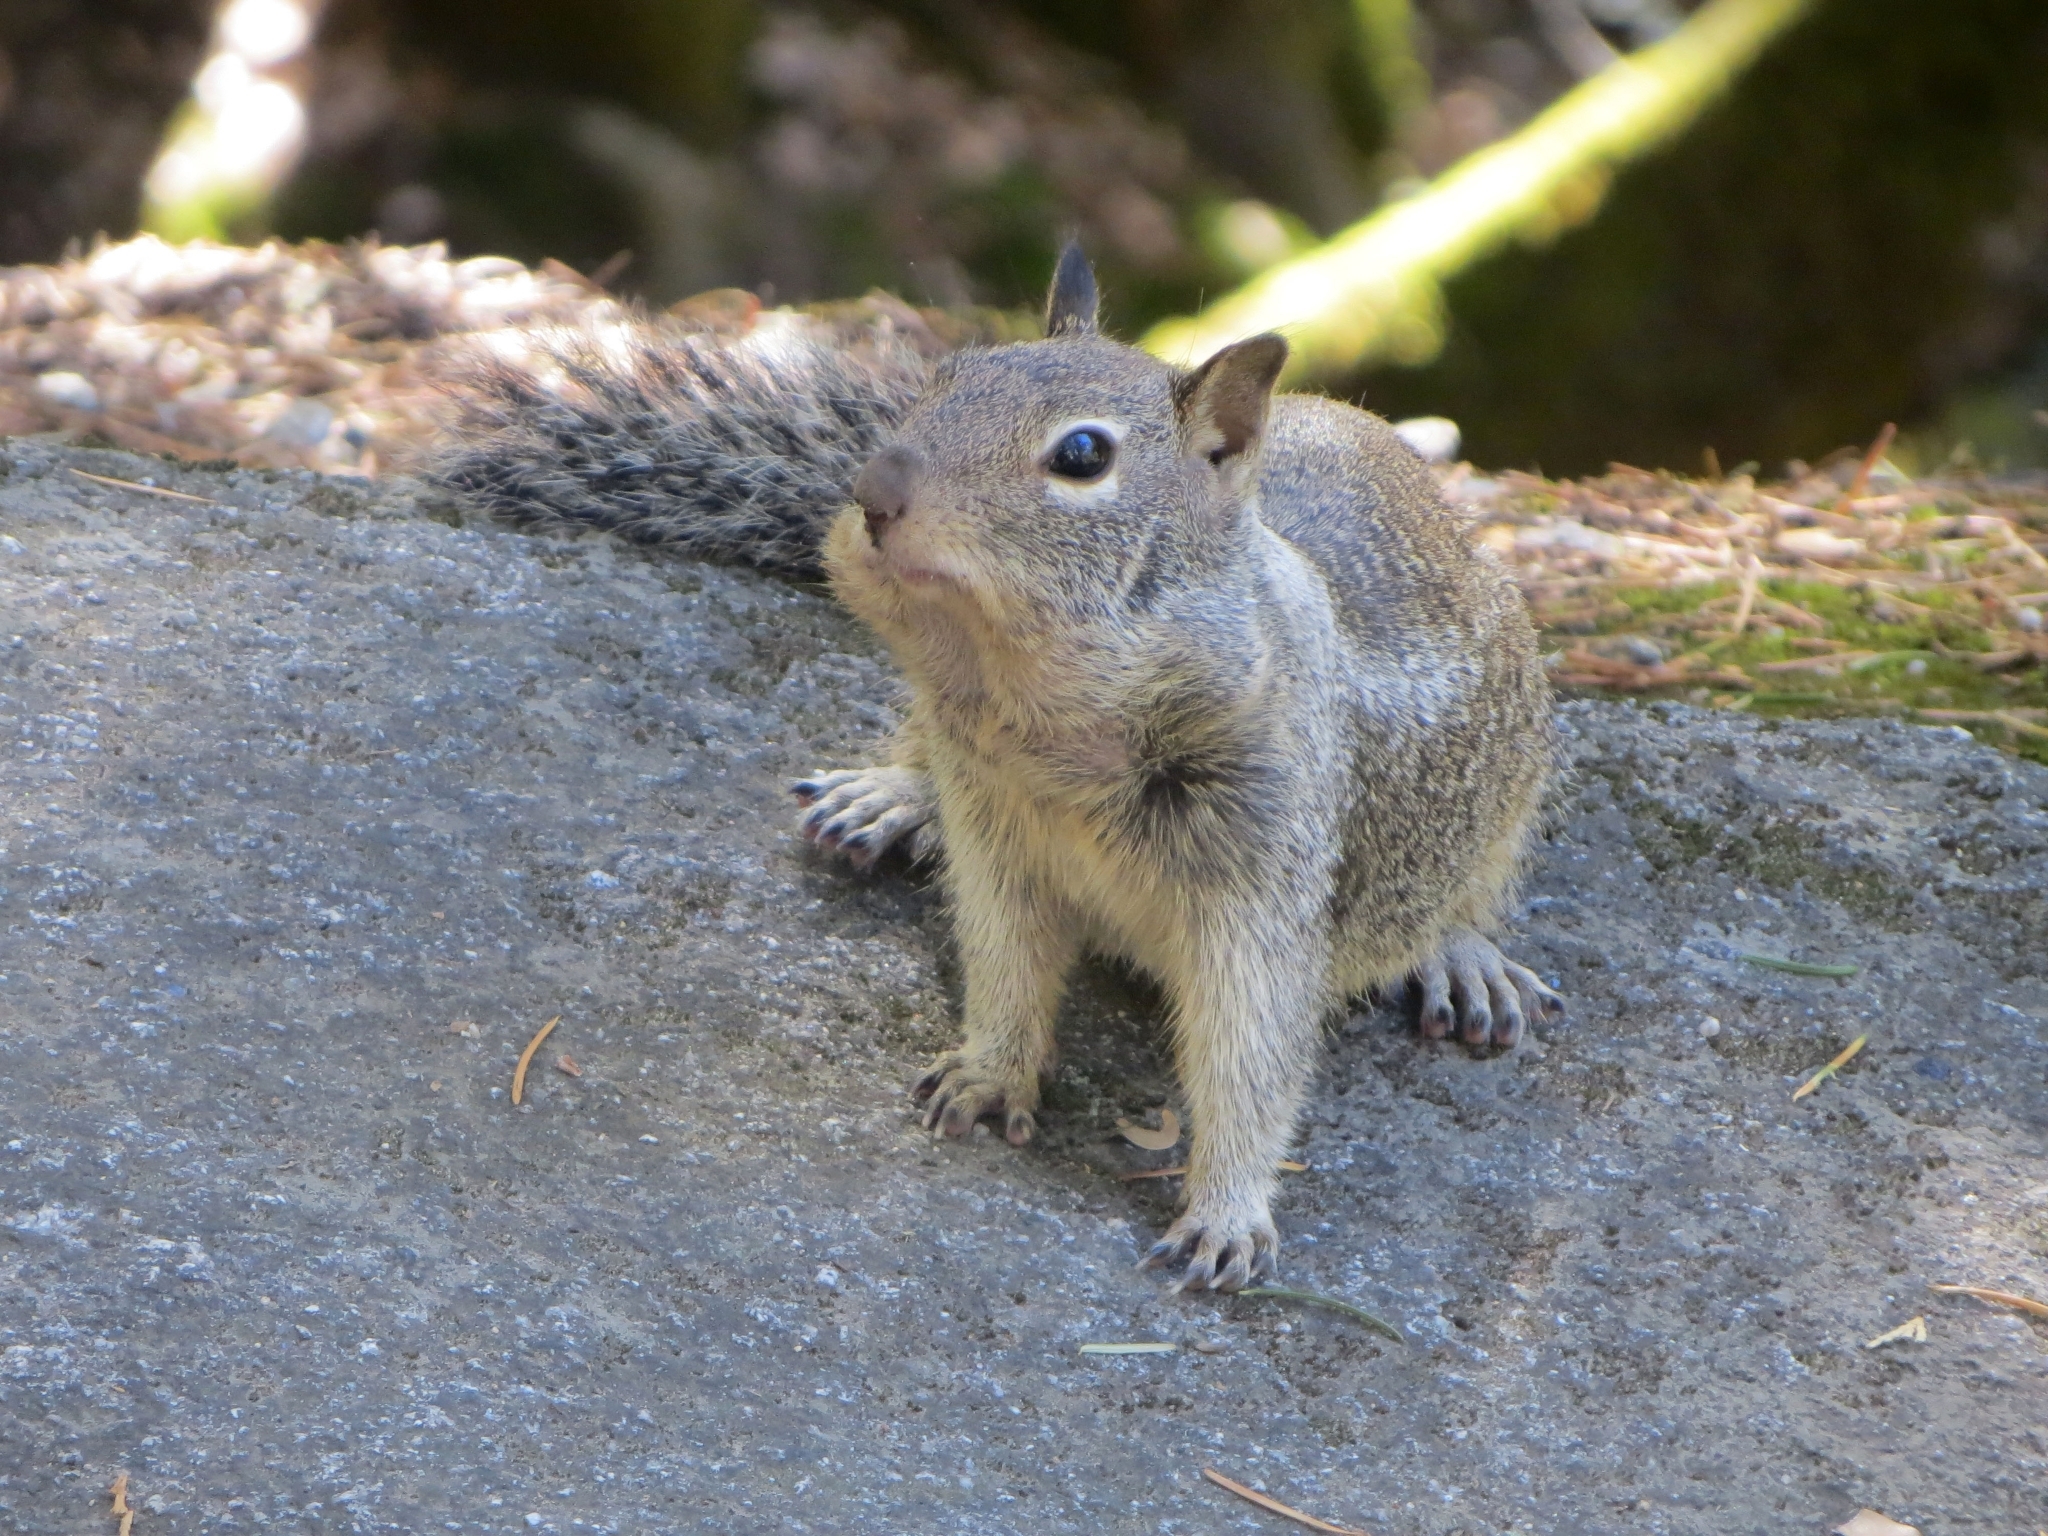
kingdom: Animalia
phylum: Chordata
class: Mammalia
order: Rodentia
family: Sciuridae
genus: Otospermophilus
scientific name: Otospermophilus beecheyi
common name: California ground squirrel
